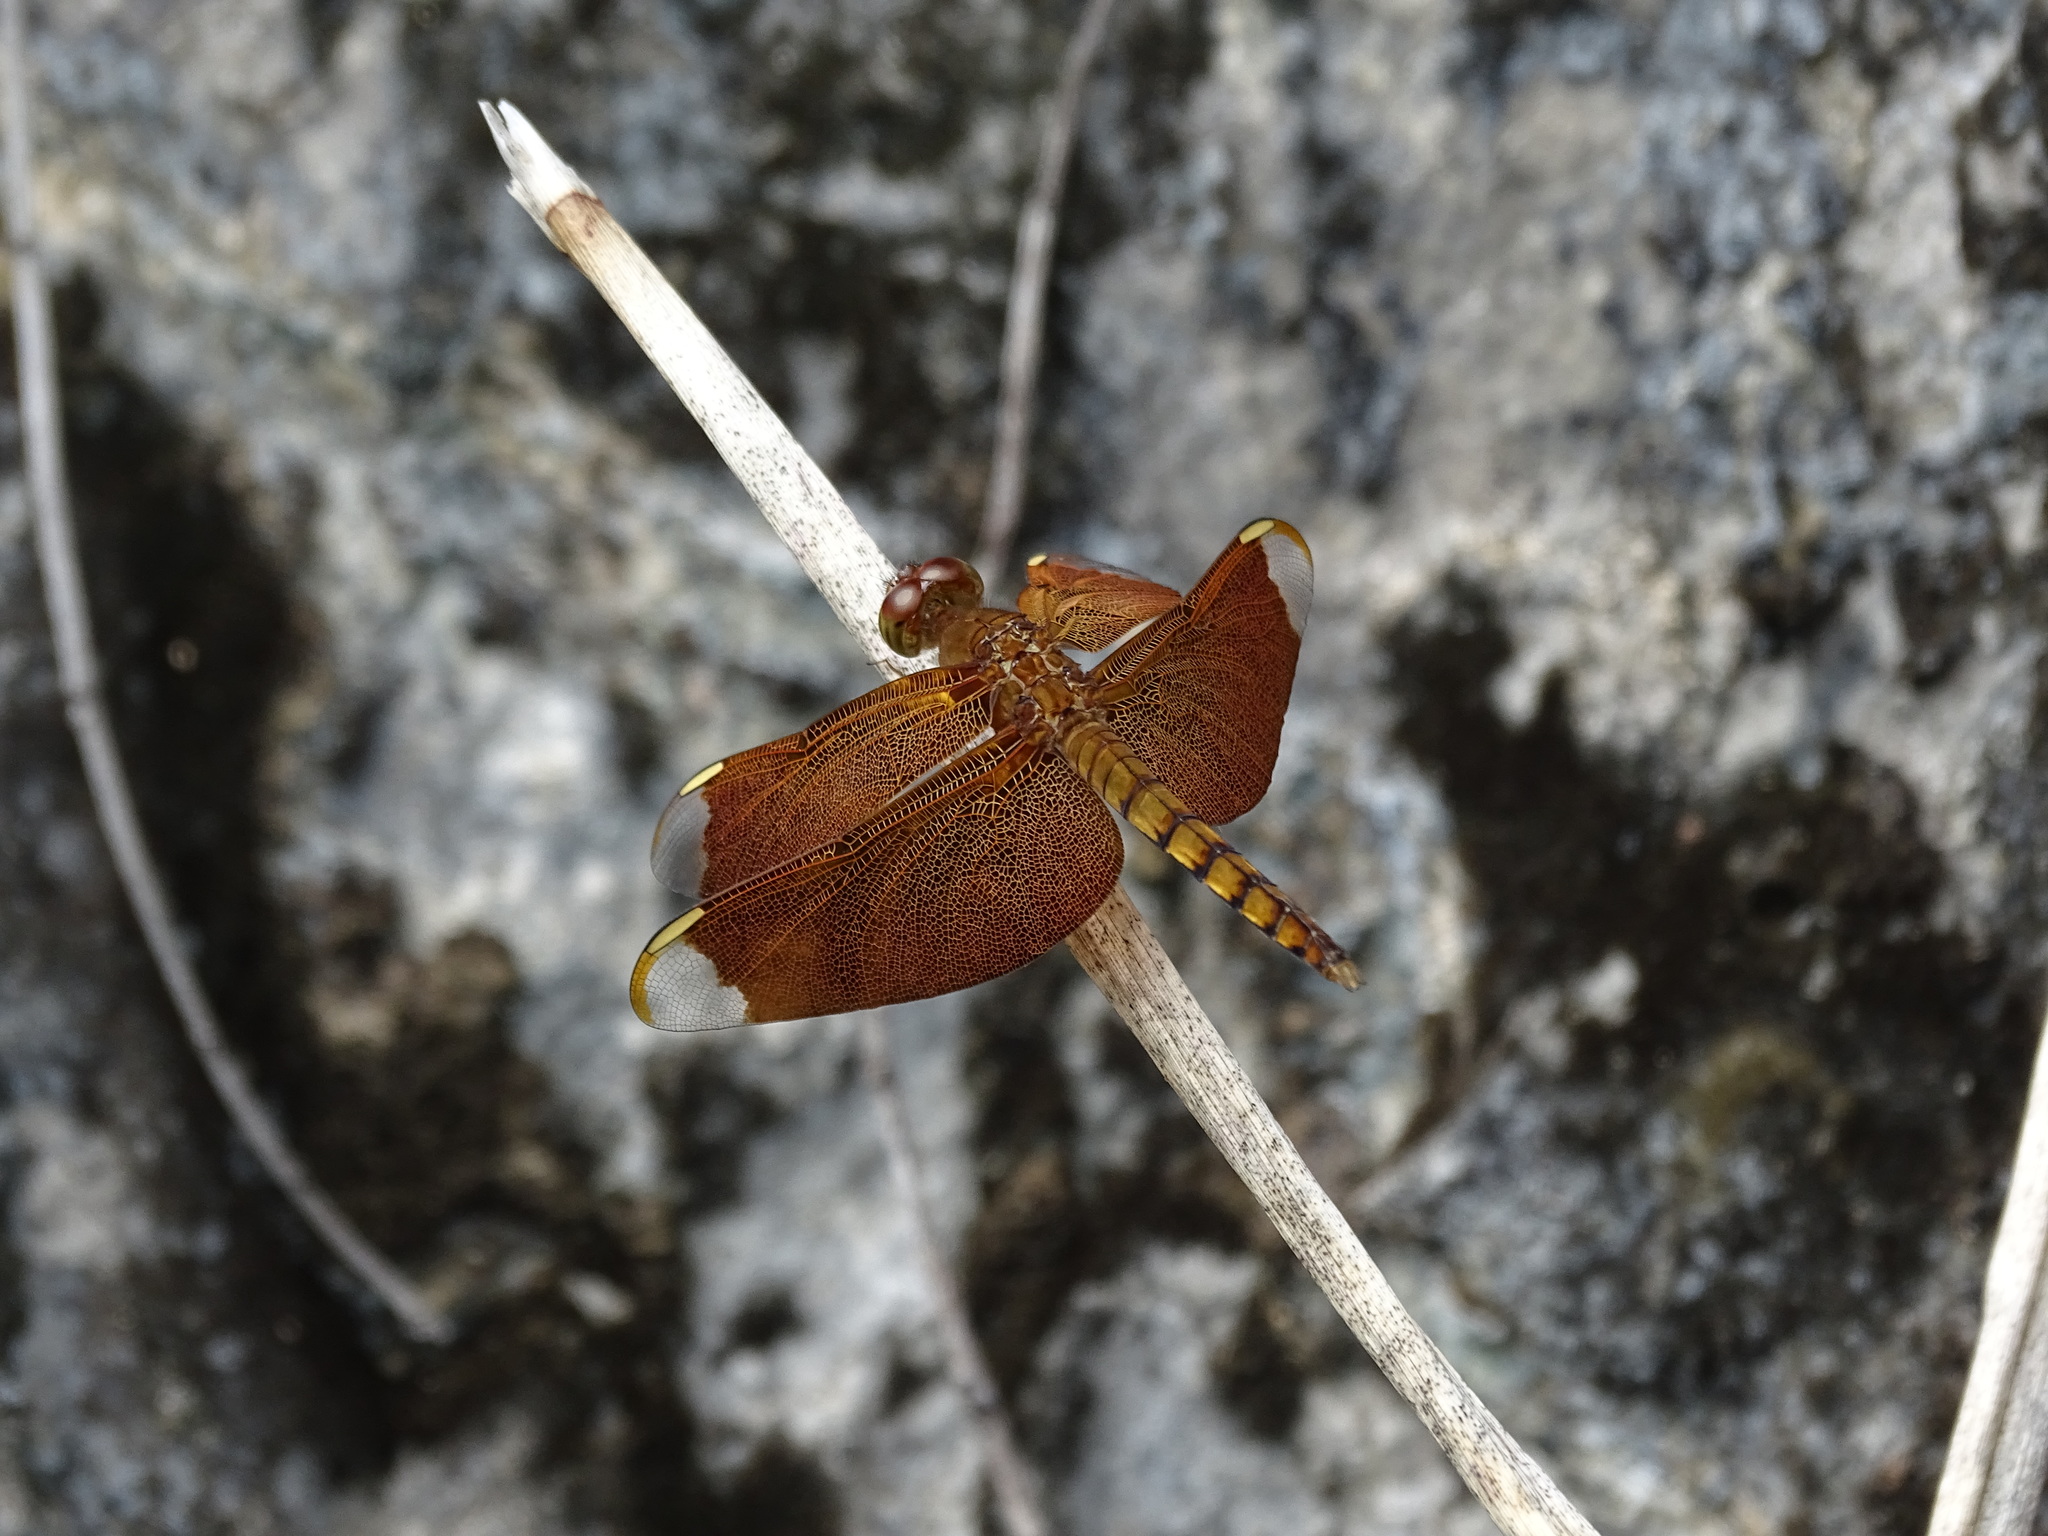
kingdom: Animalia
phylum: Arthropoda
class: Insecta
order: Odonata
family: Libellulidae
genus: Neurothemis
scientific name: Neurothemis fulvia
